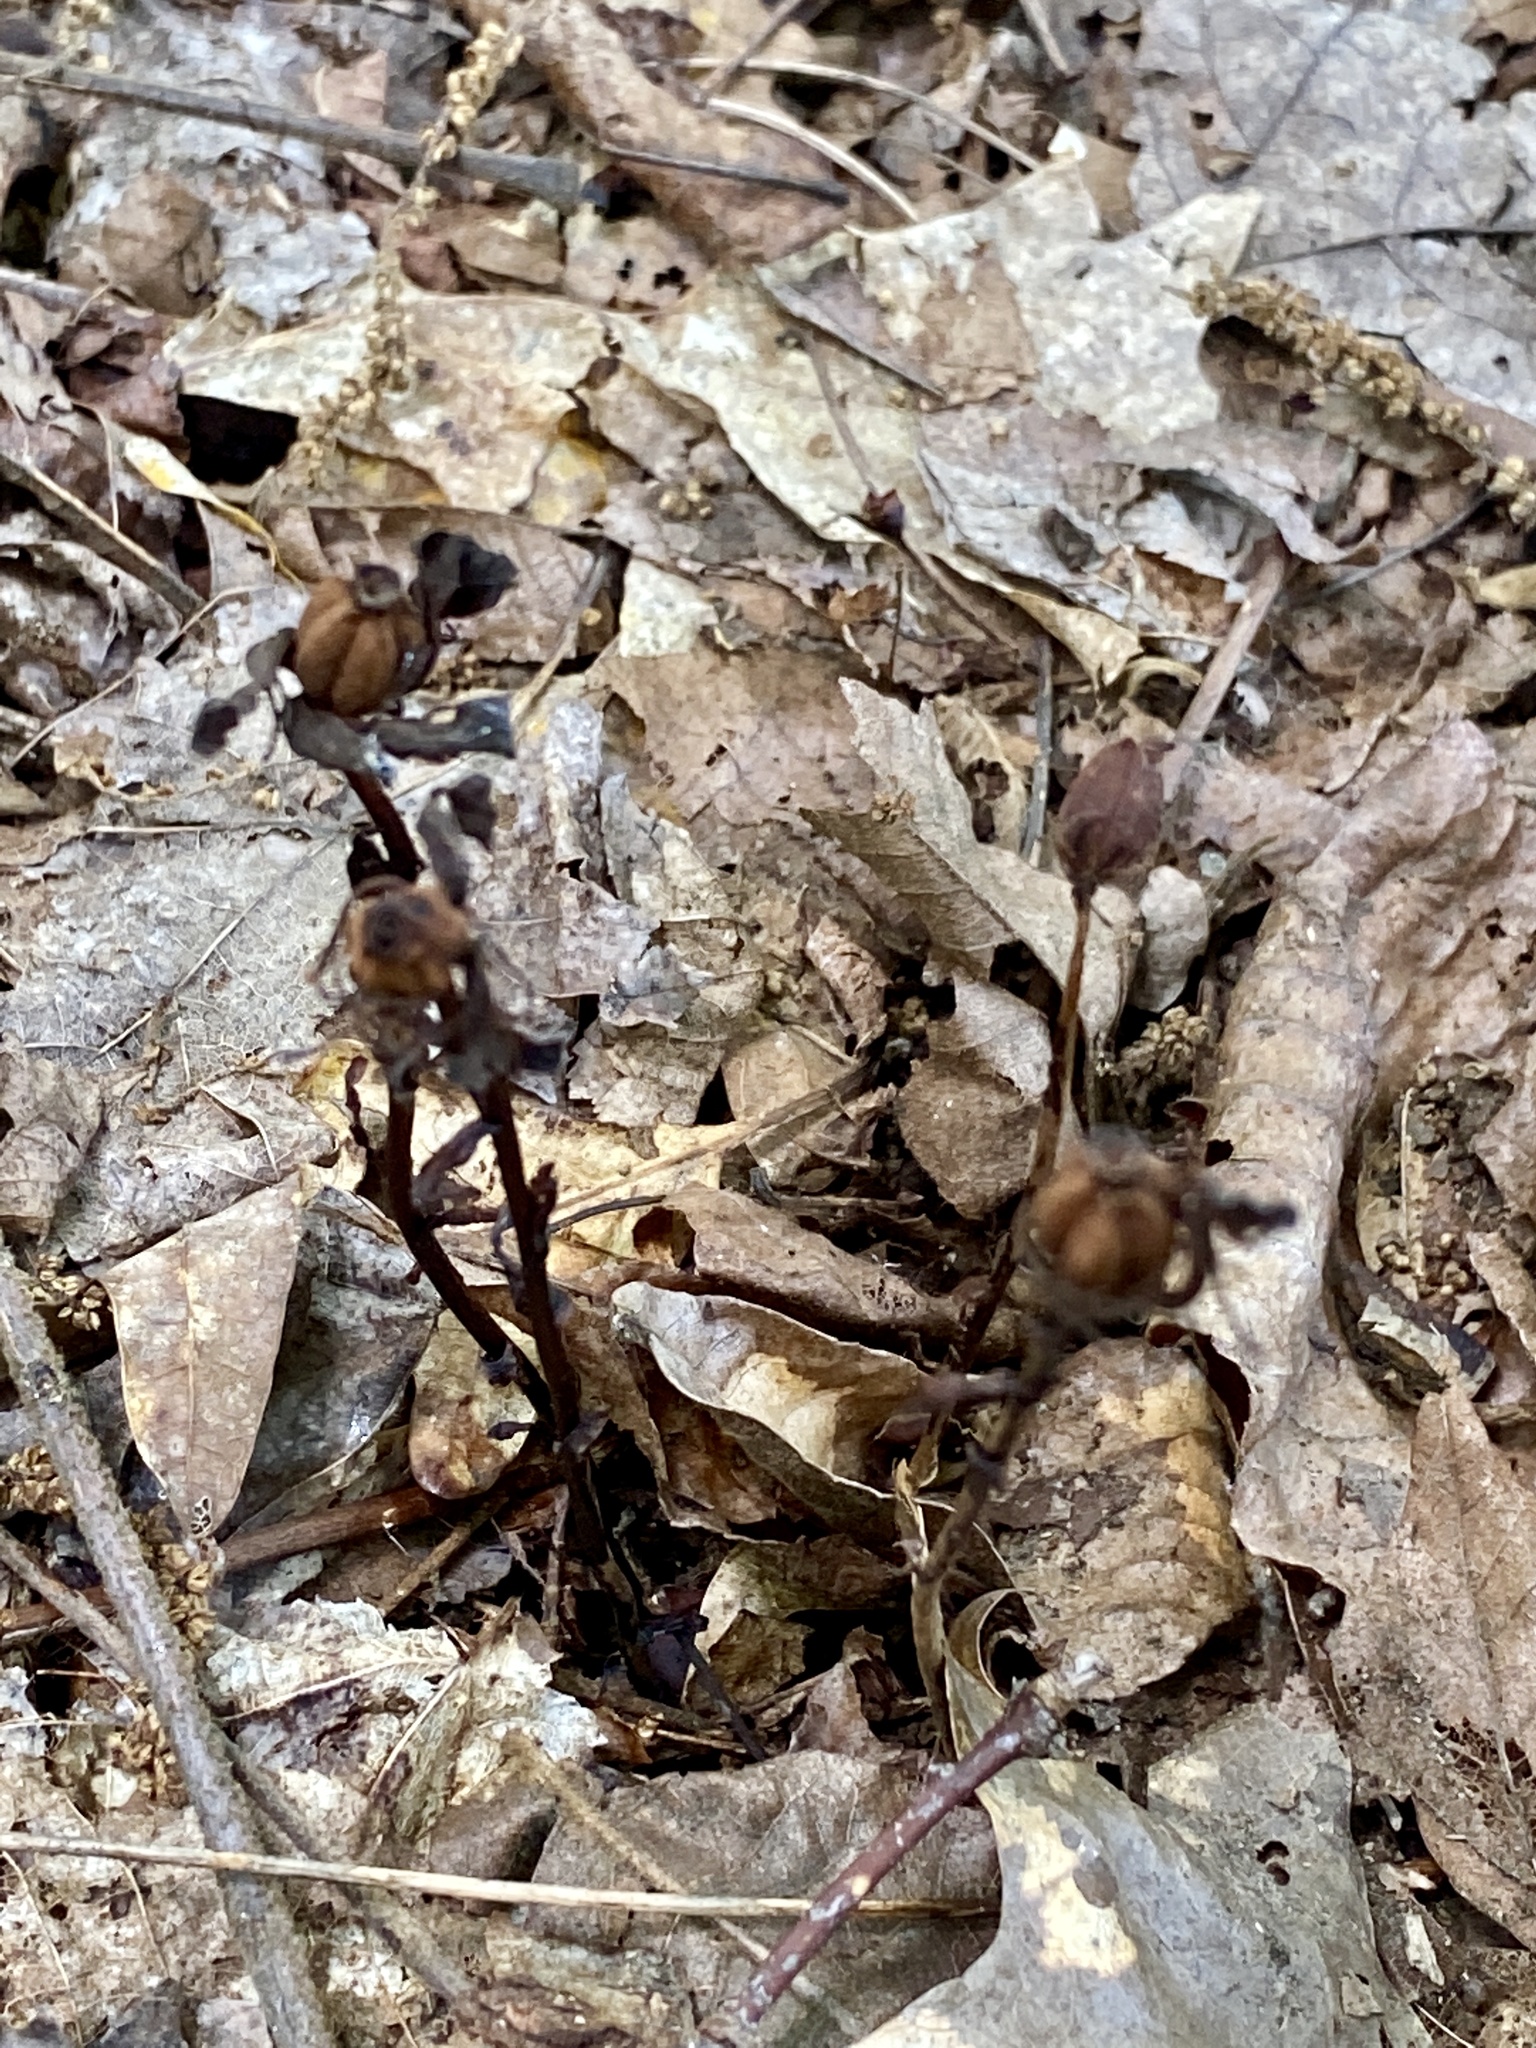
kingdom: Plantae
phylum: Tracheophyta
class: Magnoliopsida
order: Ericales
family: Ericaceae
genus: Monotropa
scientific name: Monotropa uniflora
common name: Convulsion root
